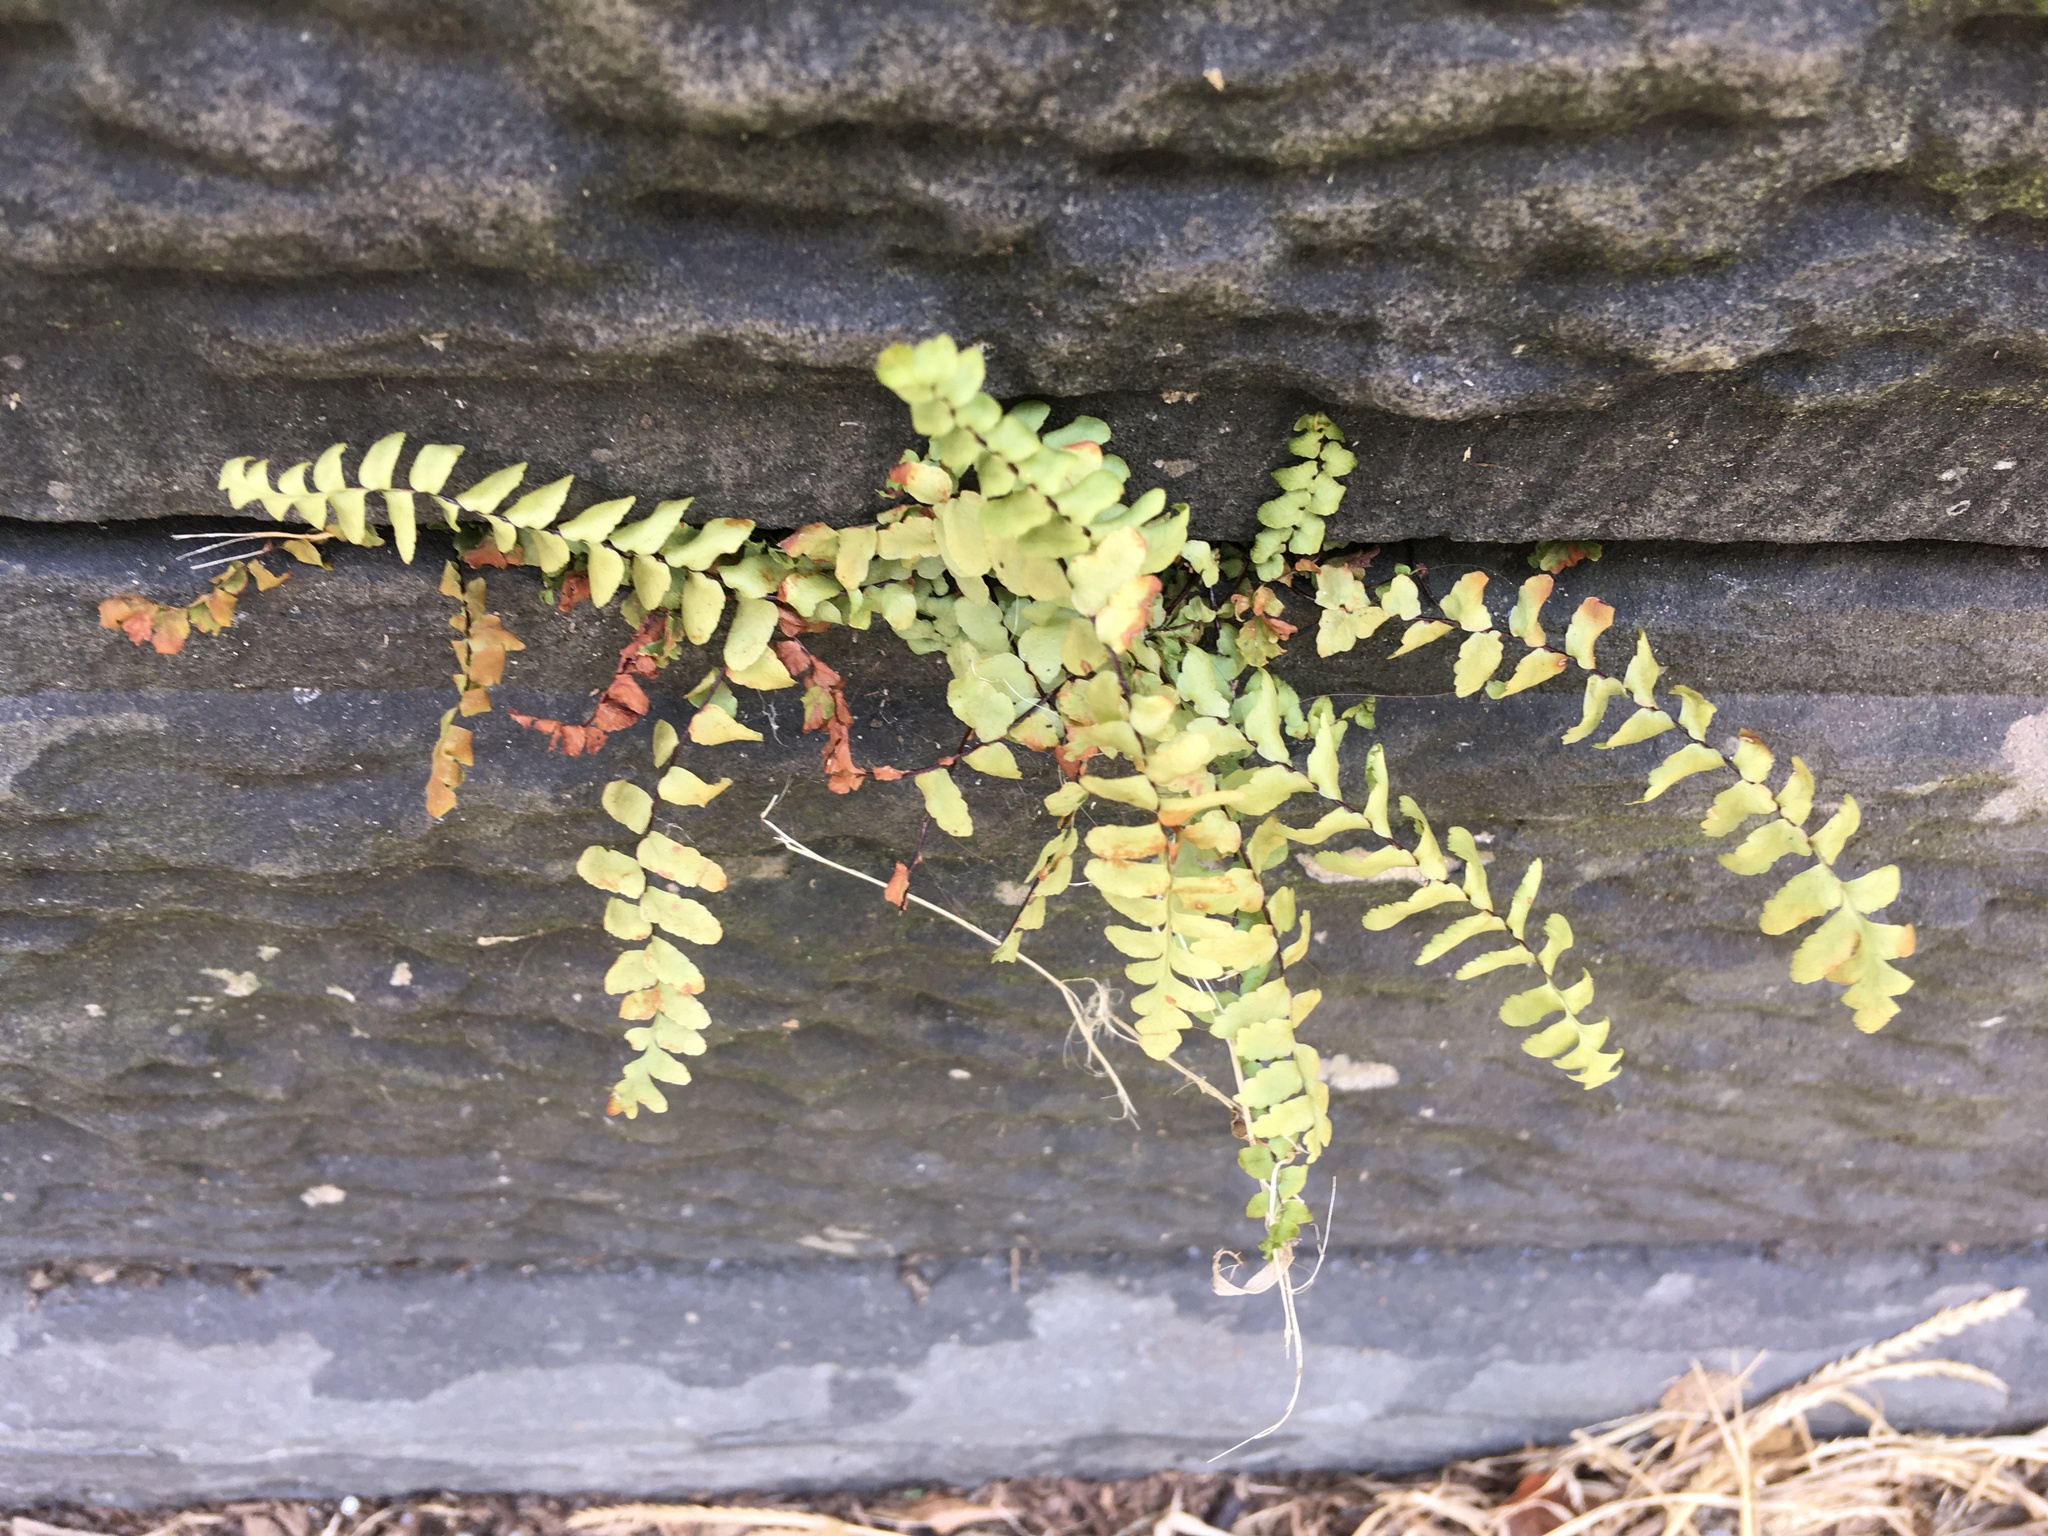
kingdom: Plantae
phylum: Tracheophyta
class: Polypodiopsida
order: Polypodiales
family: Aspleniaceae
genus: Asplenium
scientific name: Asplenium platyneuron
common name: Ebony spleenwort
